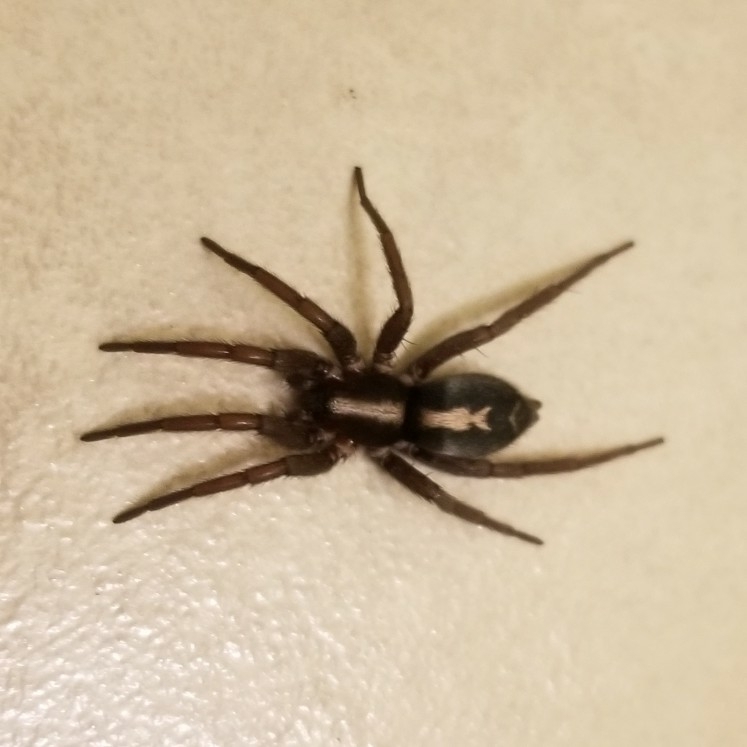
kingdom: Animalia
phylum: Arthropoda
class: Arachnida
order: Araneae
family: Gnaphosidae
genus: Herpyllus
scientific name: Herpyllus propinquus
